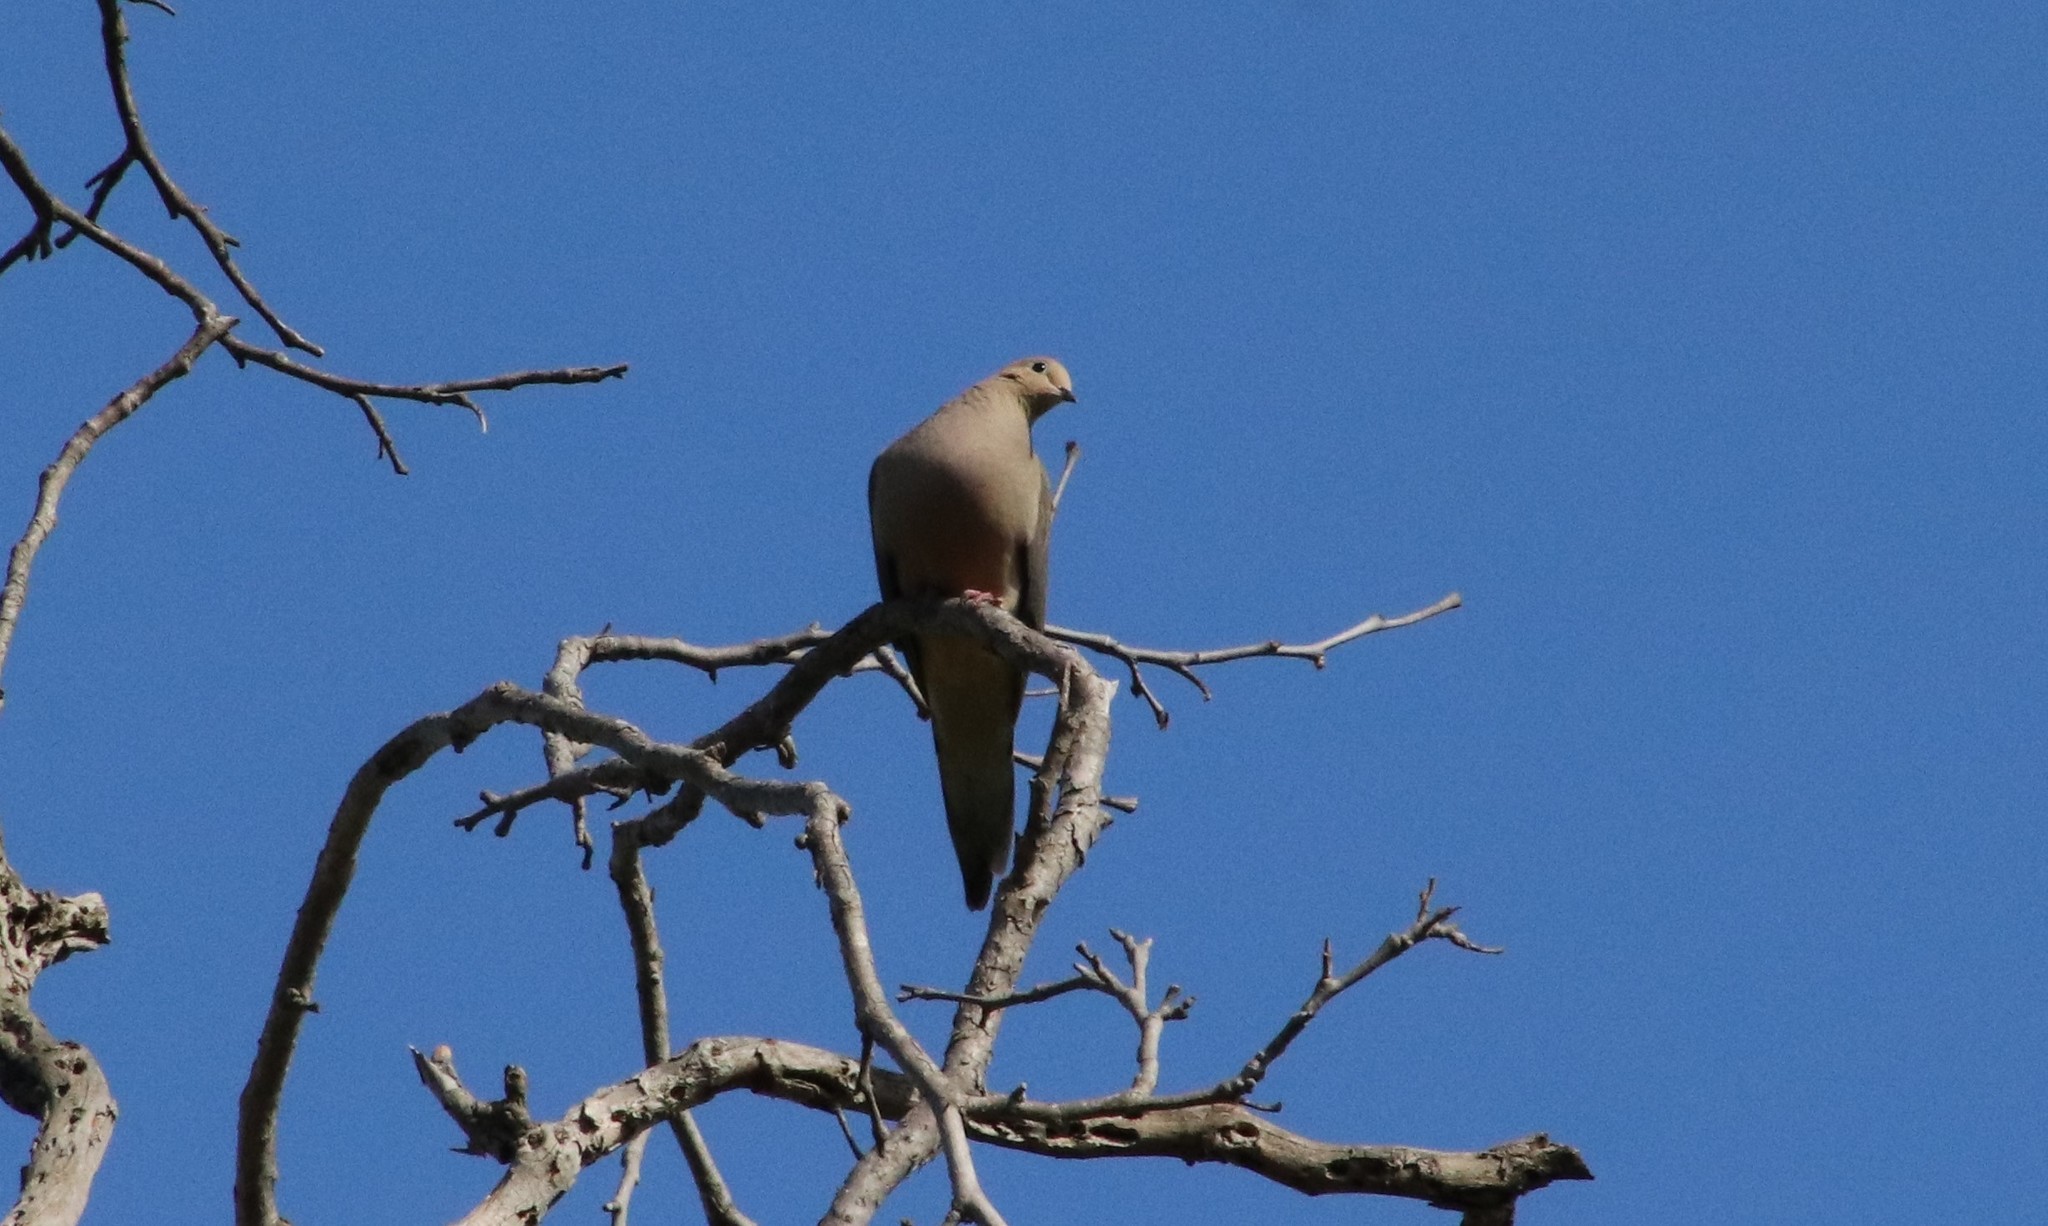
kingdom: Animalia
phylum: Chordata
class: Aves
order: Columbiformes
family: Columbidae
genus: Zenaida
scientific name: Zenaida macroura
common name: Mourning dove
